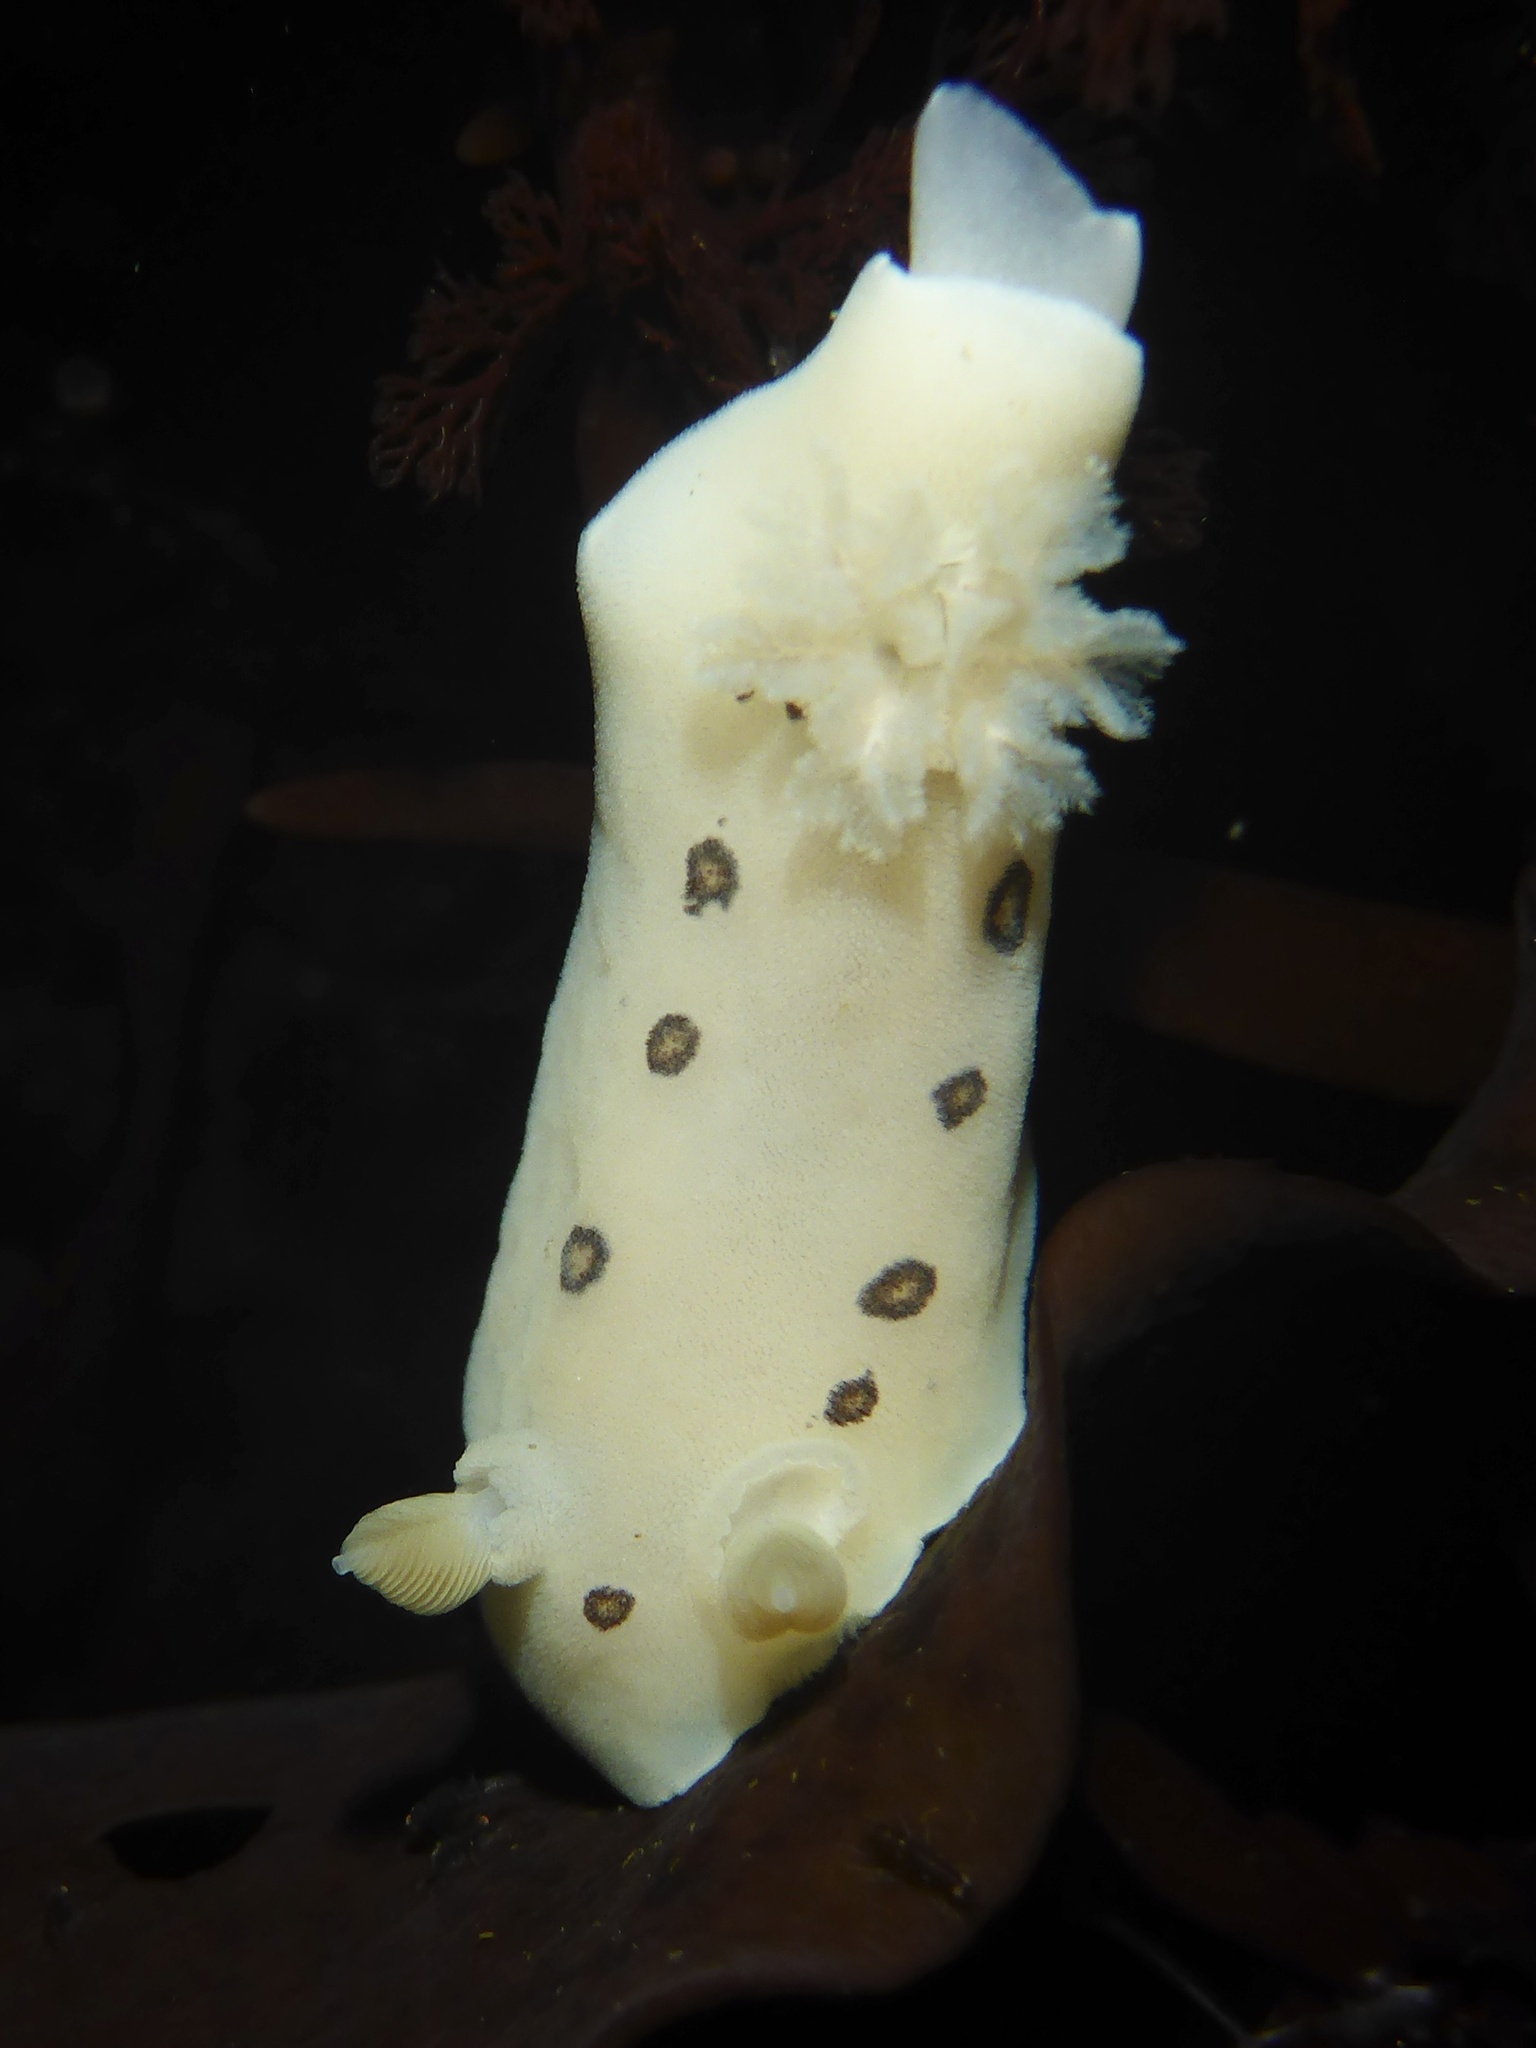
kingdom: Animalia
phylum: Mollusca
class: Gastropoda
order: Nudibranchia
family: Discodorididae
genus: Diaulula
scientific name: Diaulula sandiegensis
